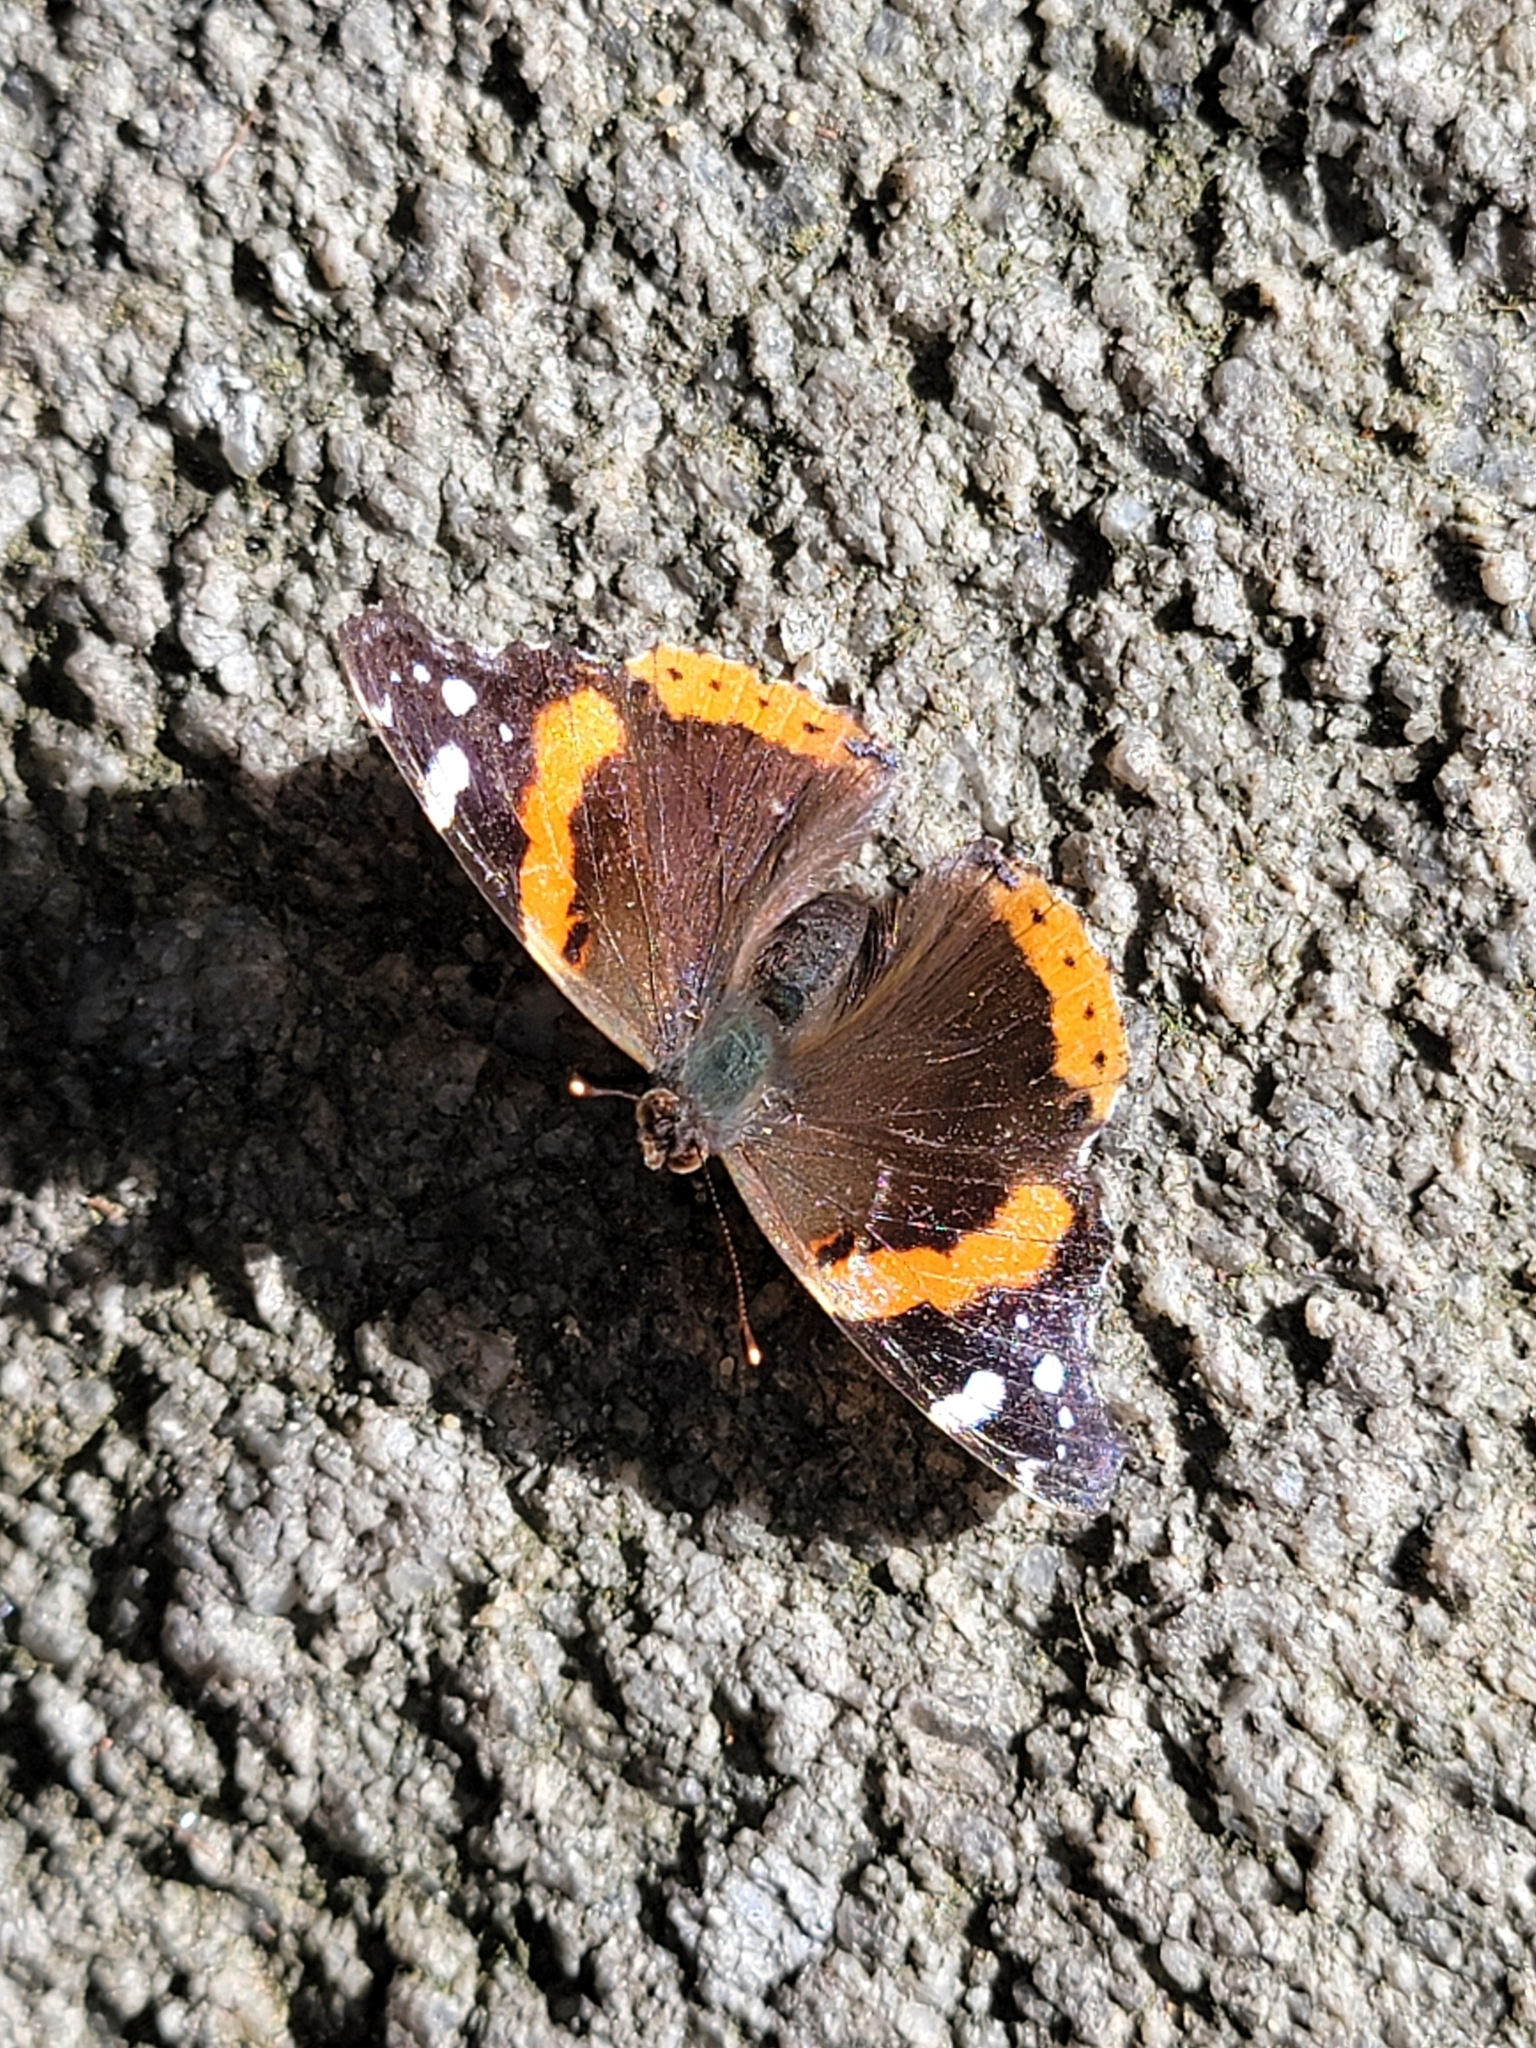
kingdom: Animalia
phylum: Arthropoda
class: Insecta
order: Lepidoptera
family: Nymphalidae
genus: Vanessa
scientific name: Vanessa atalanta
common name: Red admiral
